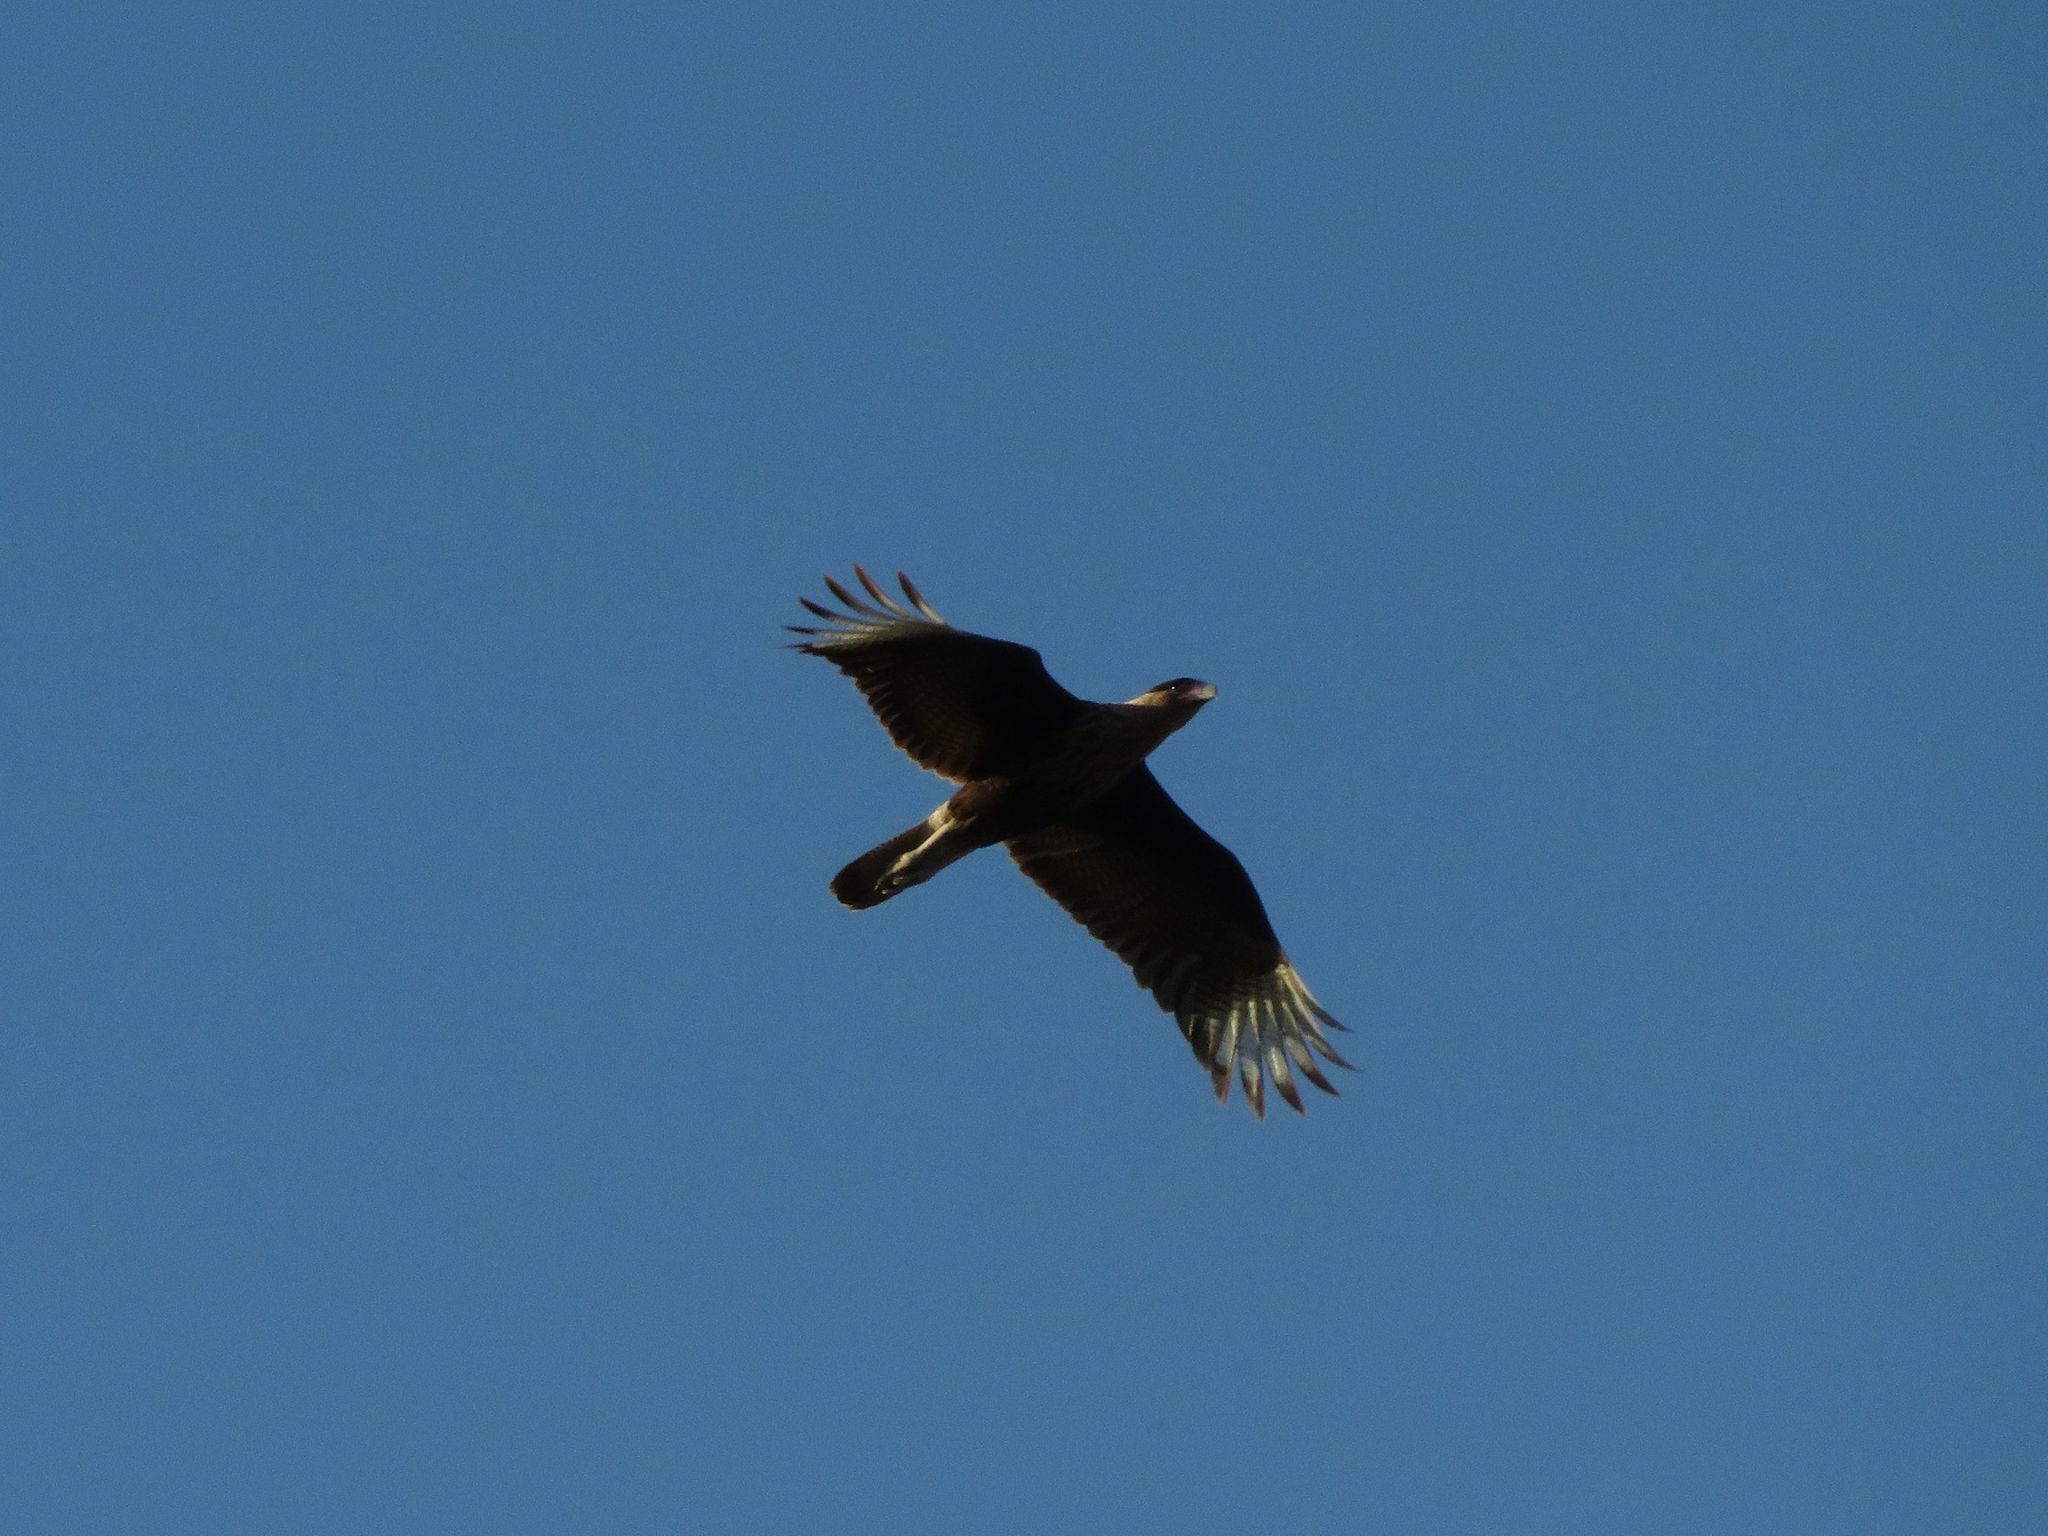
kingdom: Animalia
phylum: Chordata
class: Aves
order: Falconiformes
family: Falconidae
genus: Caracara
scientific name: Caracara plancus
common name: Southern caracara
